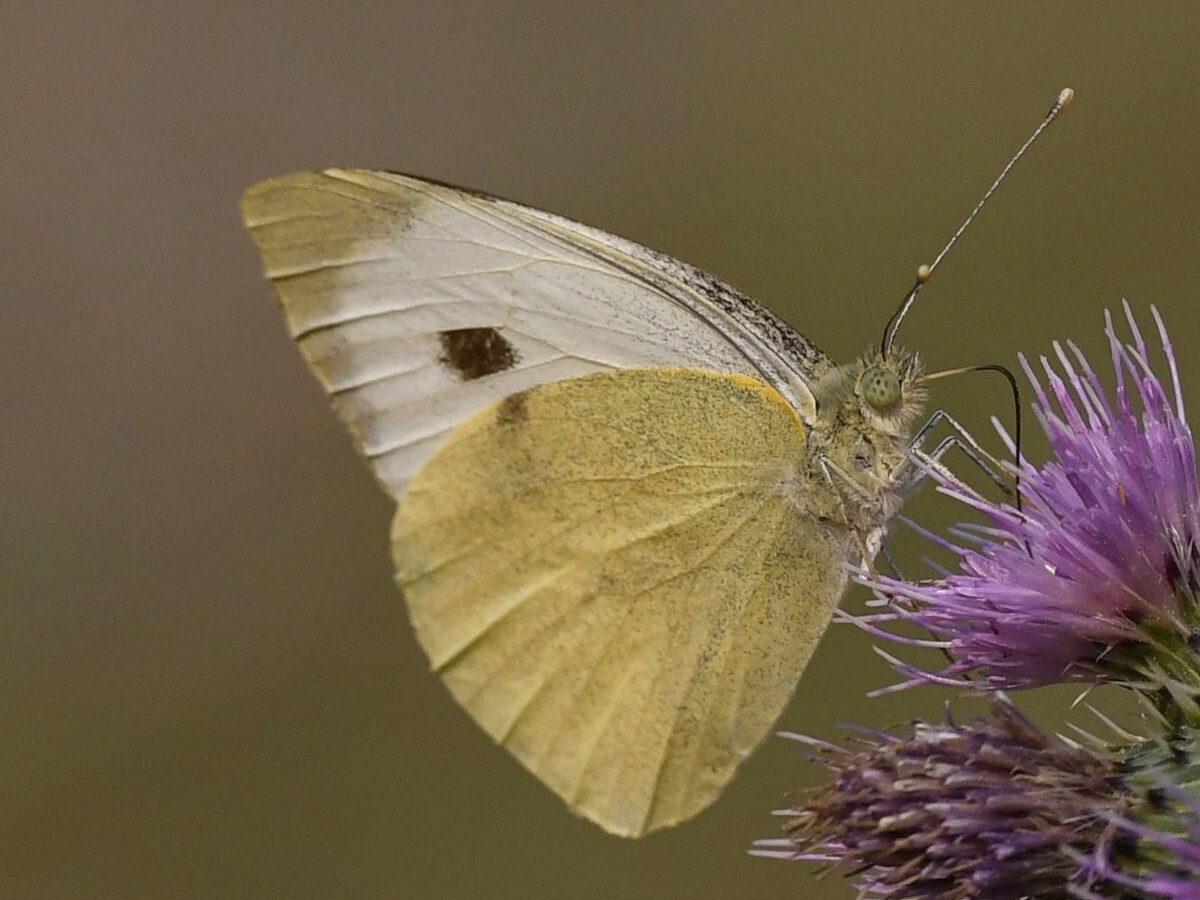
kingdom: Animalia
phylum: Arthropoda
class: Insecta
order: Lepidoptera
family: Pieridae
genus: Pieris
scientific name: Pieris brassicae
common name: Large white
